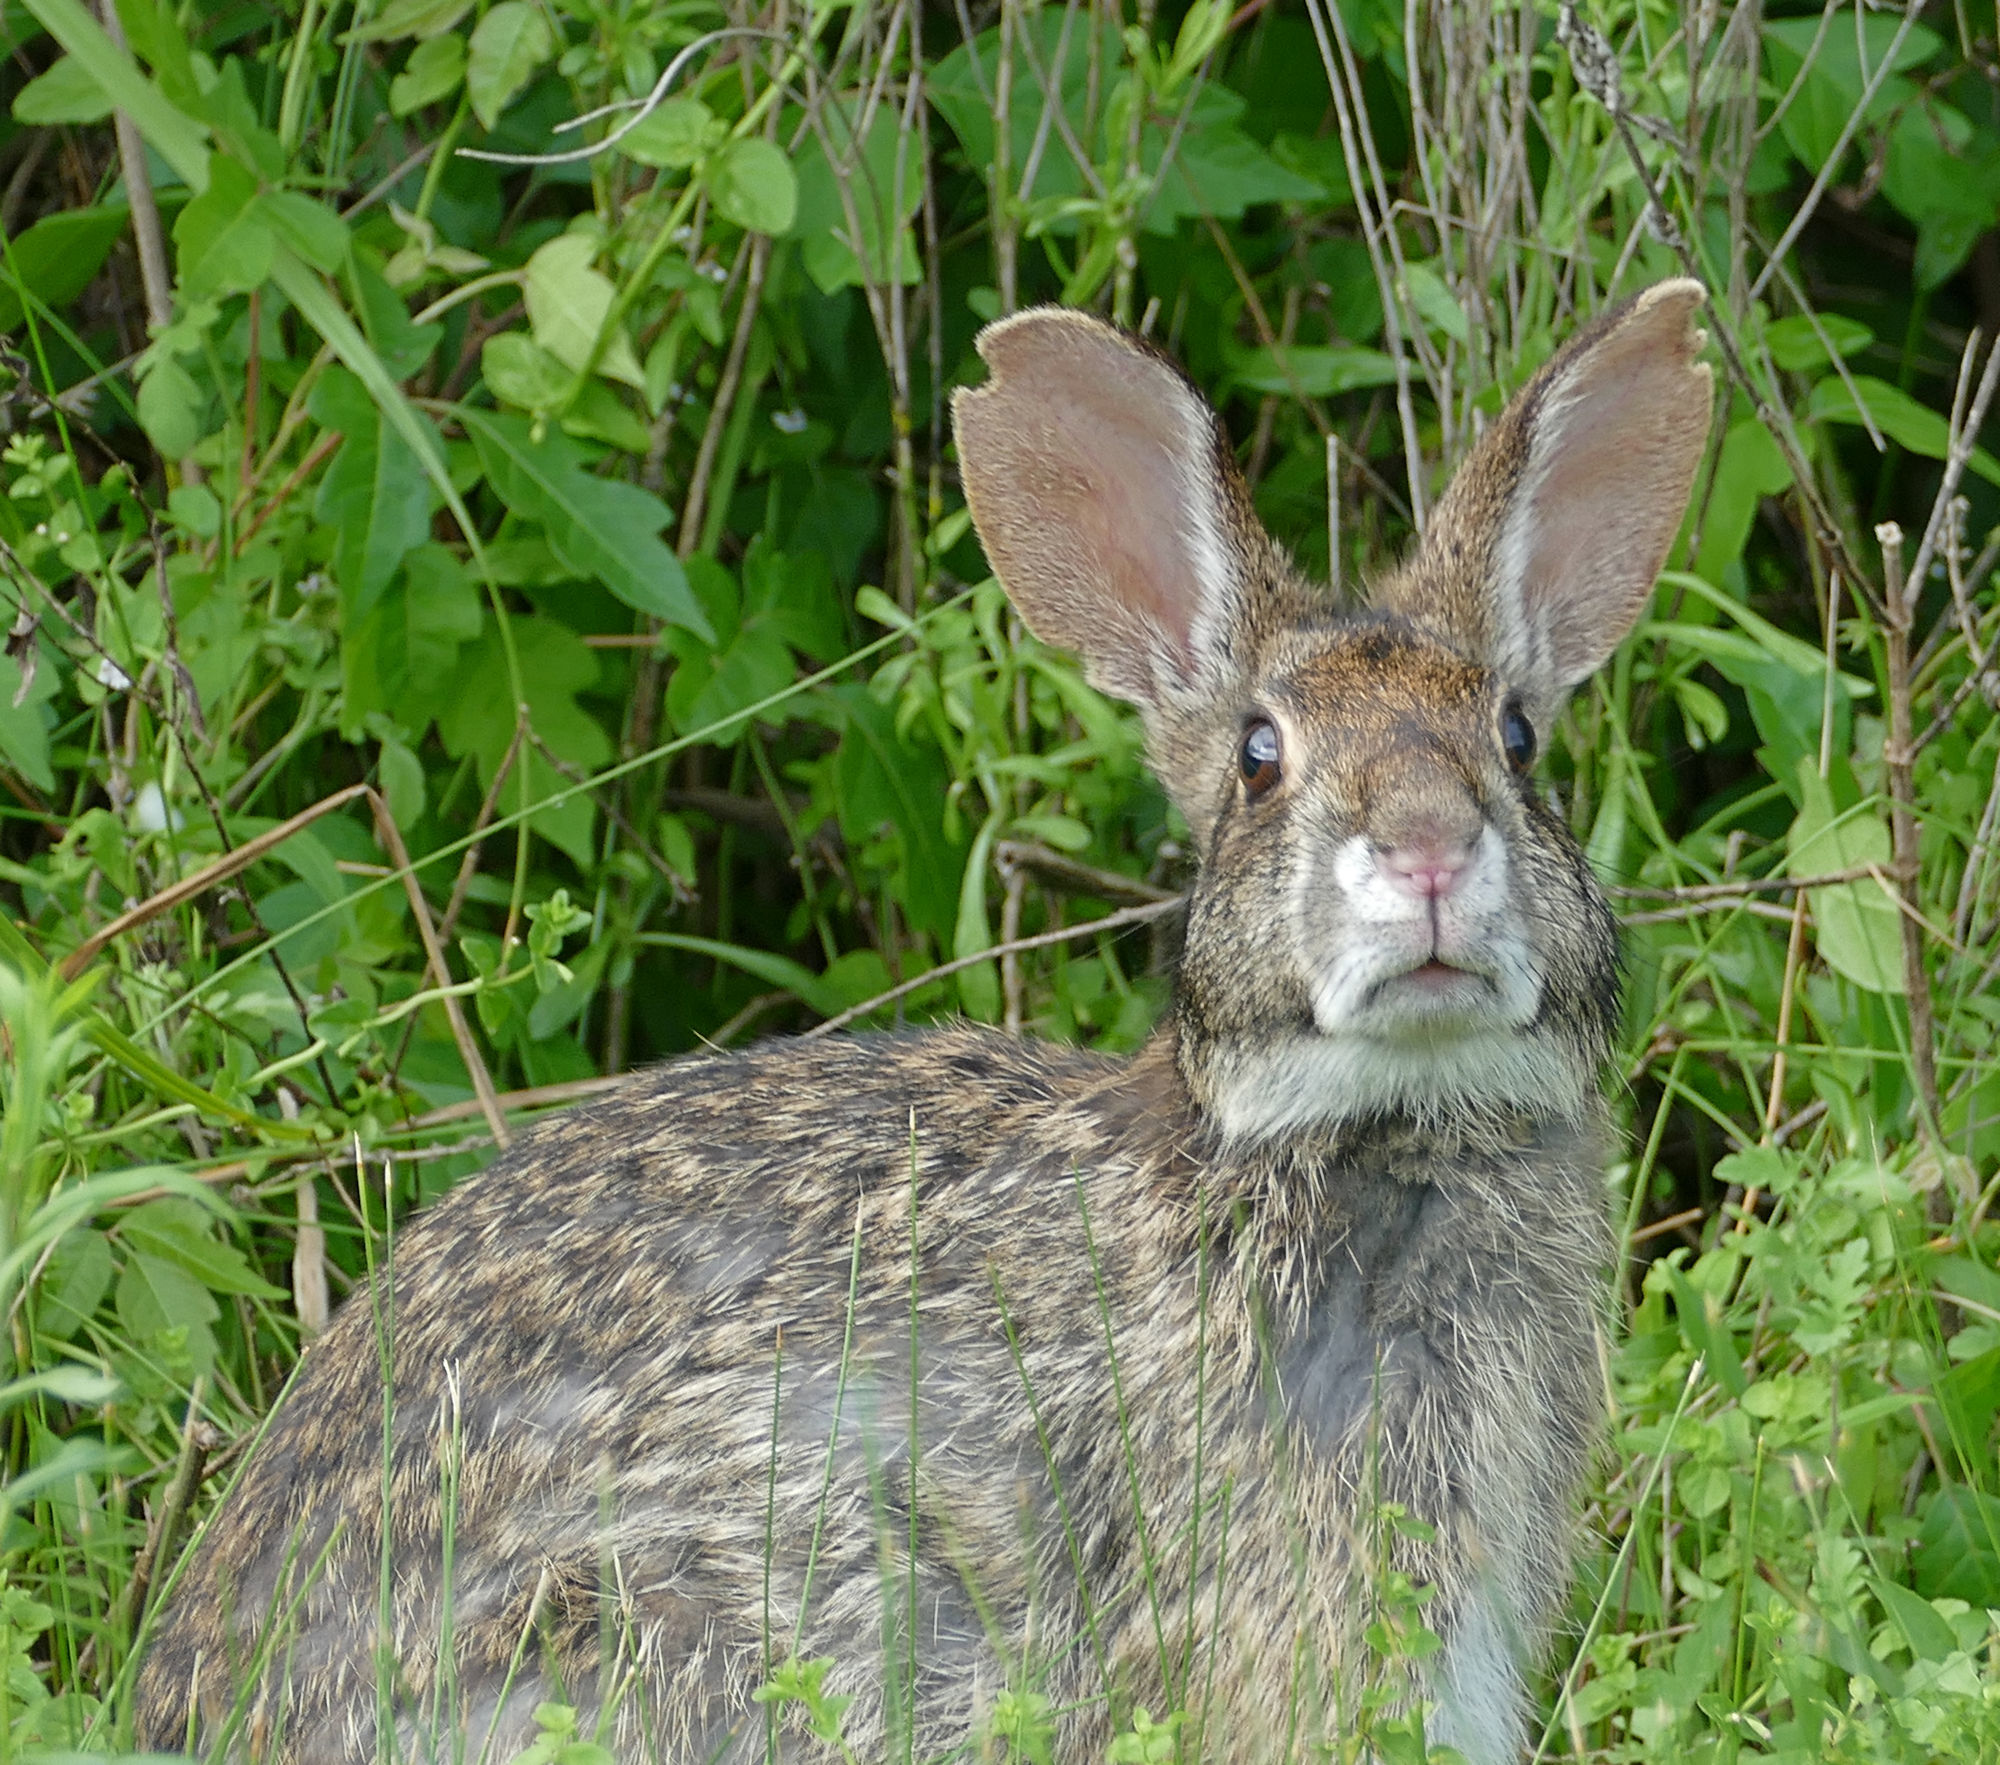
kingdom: Animalia
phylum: Chordata
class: Mammalia
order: Lagomorpha
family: Leporidae
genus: Sylvilagus
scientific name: Sylvilagus aquaticus
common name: Swamp rabbit
